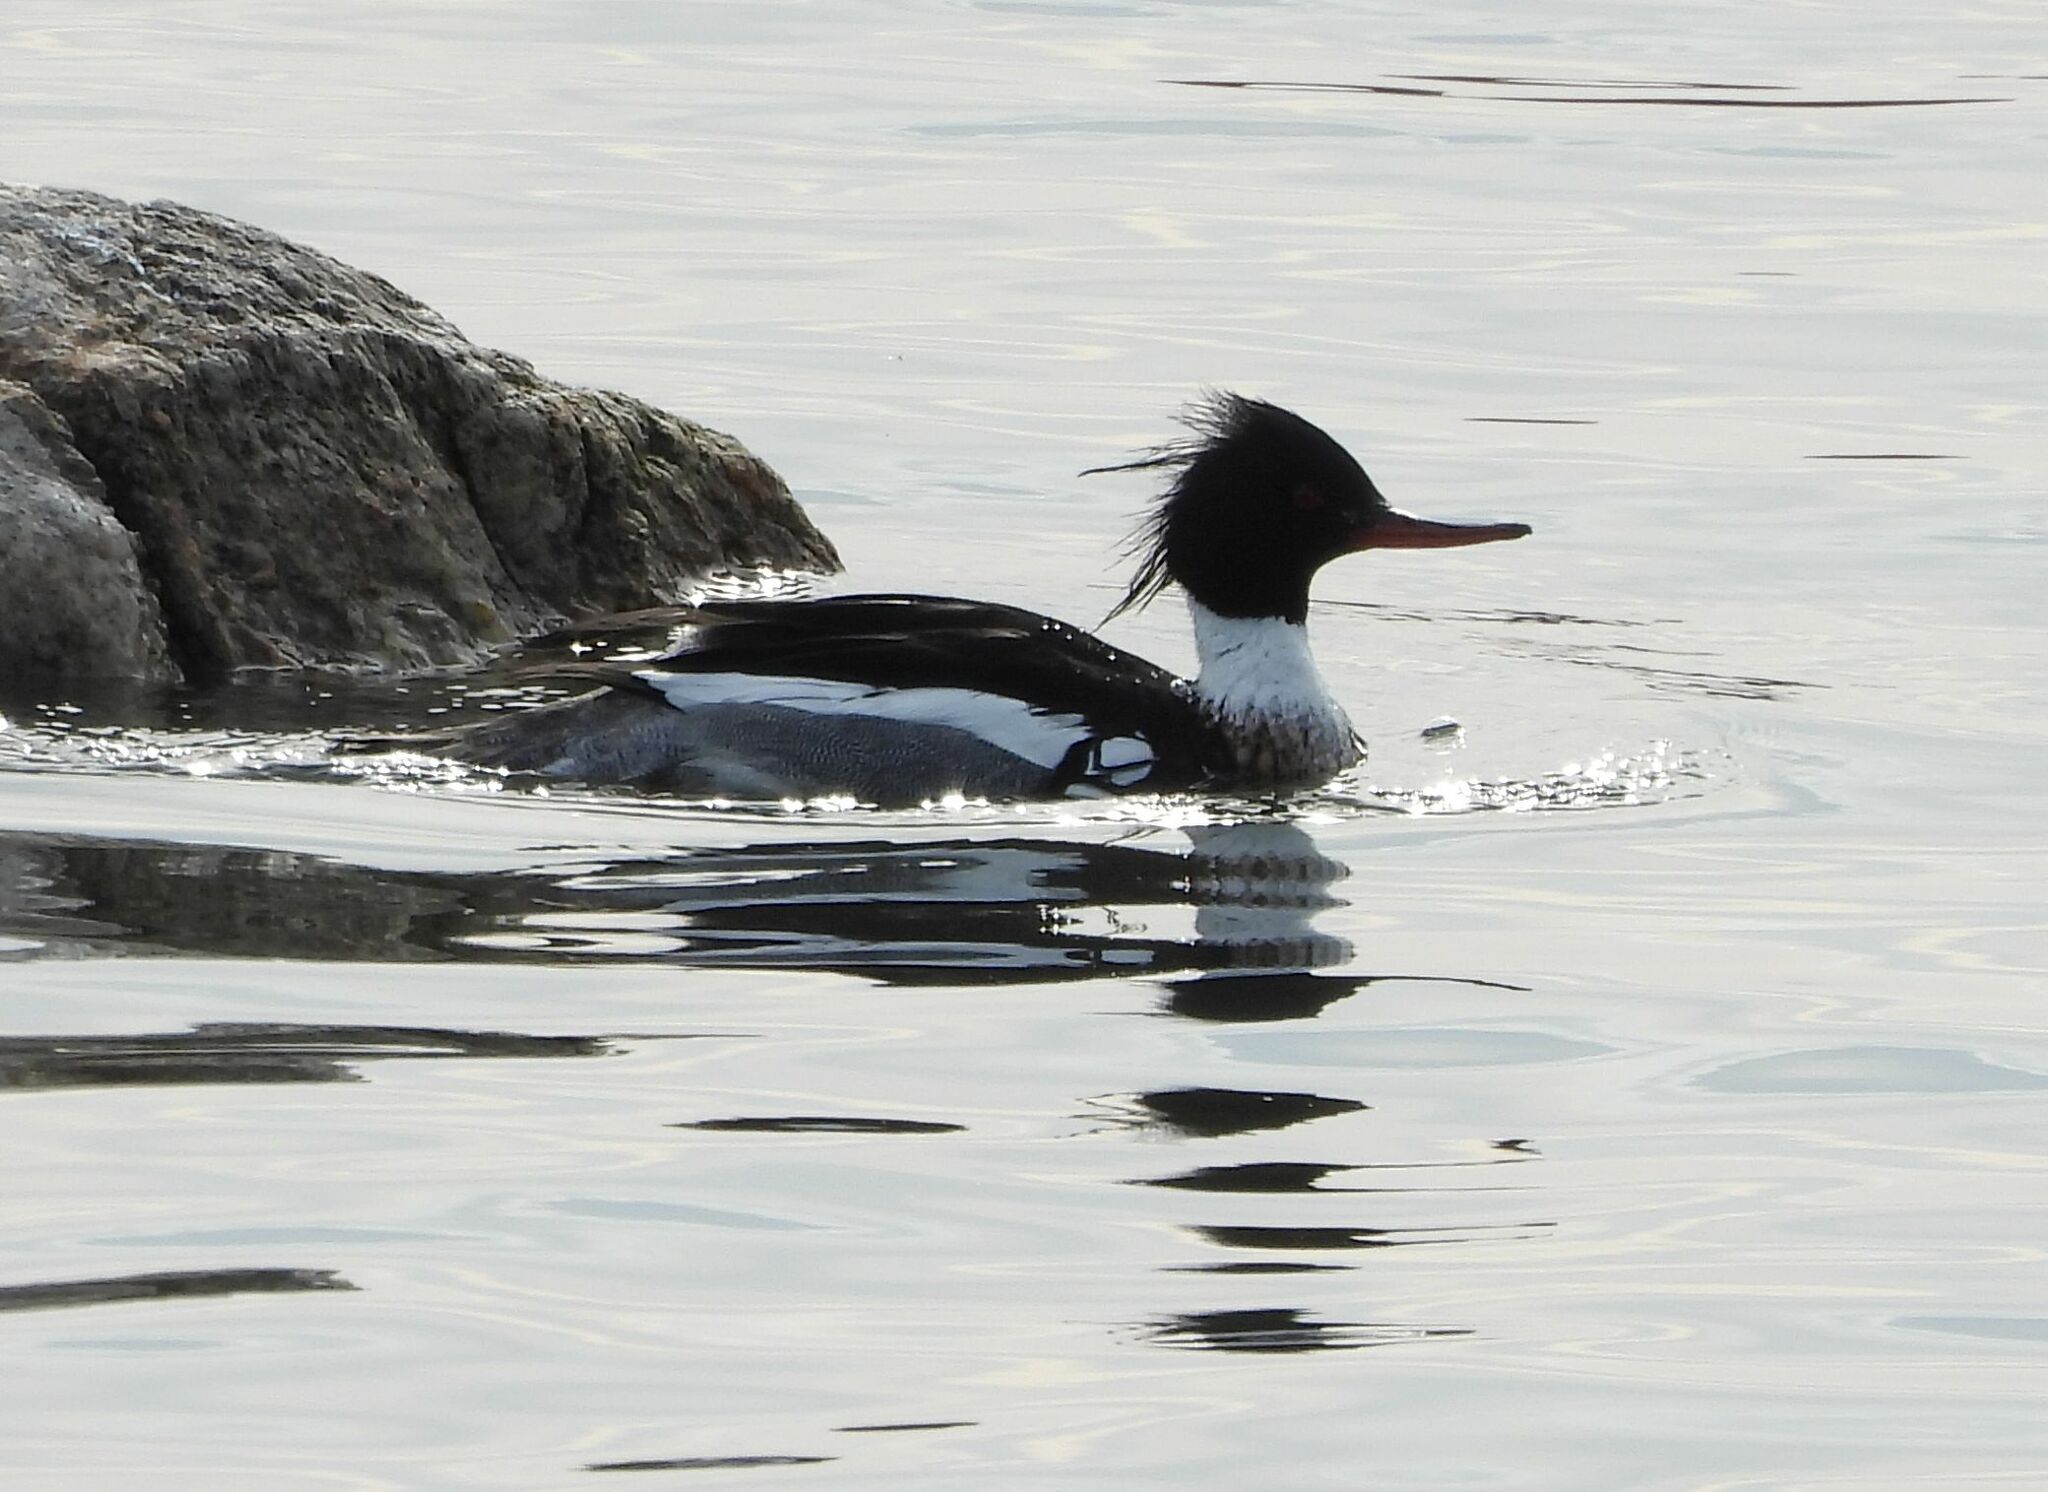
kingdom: Animalia
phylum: Chordata
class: Aves
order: Anseriformes
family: Anatidae
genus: Mergus
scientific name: Mergus serrator
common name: Red-breasted merganser
